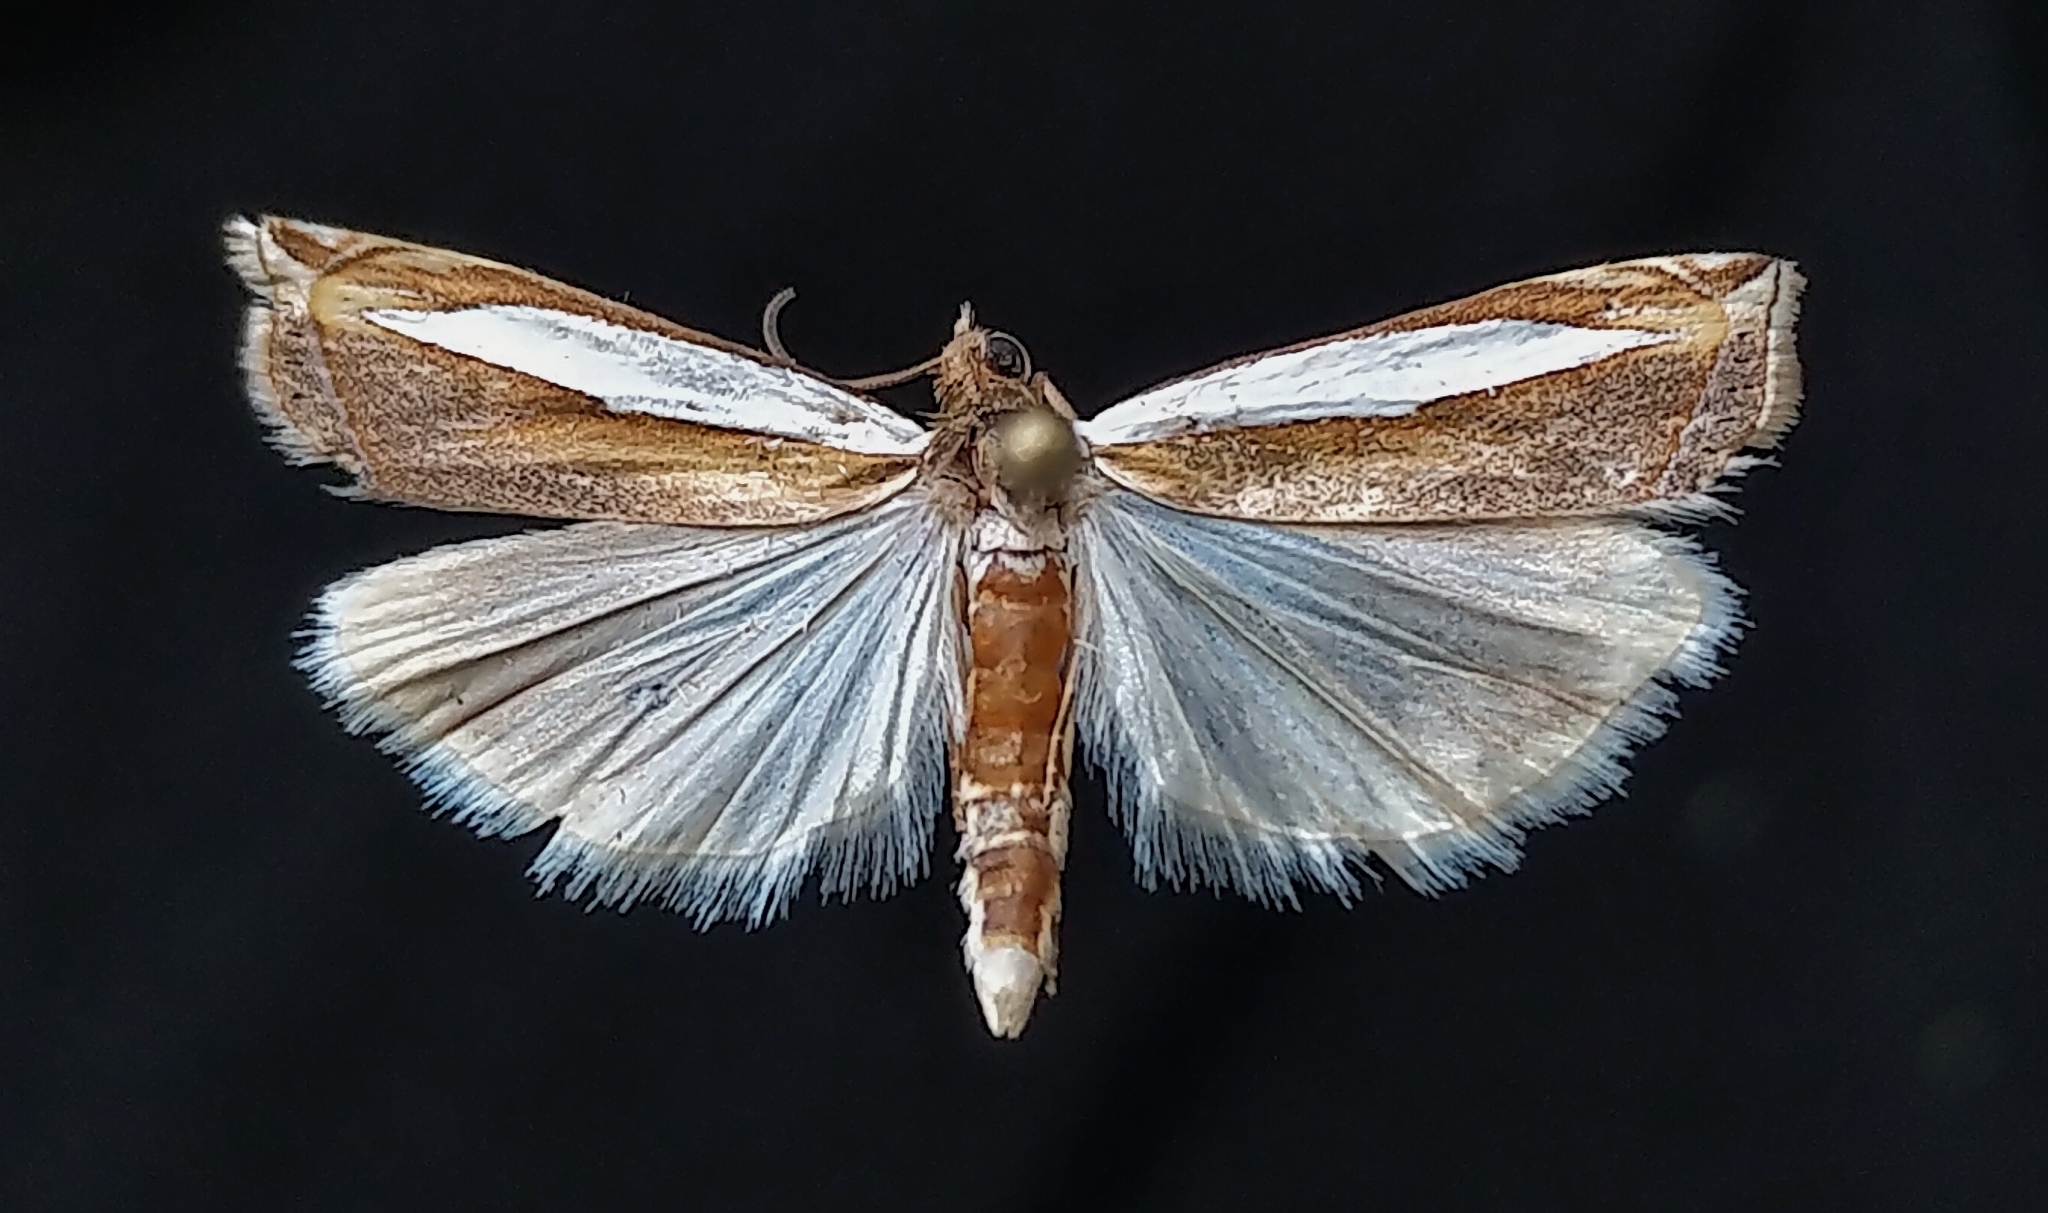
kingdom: Animalia
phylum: Arthropoda
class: Insecta
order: Lepidoptera
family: Crambidae
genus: Crambus
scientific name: Crambus leachellus
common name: Leach's grass-veneer
